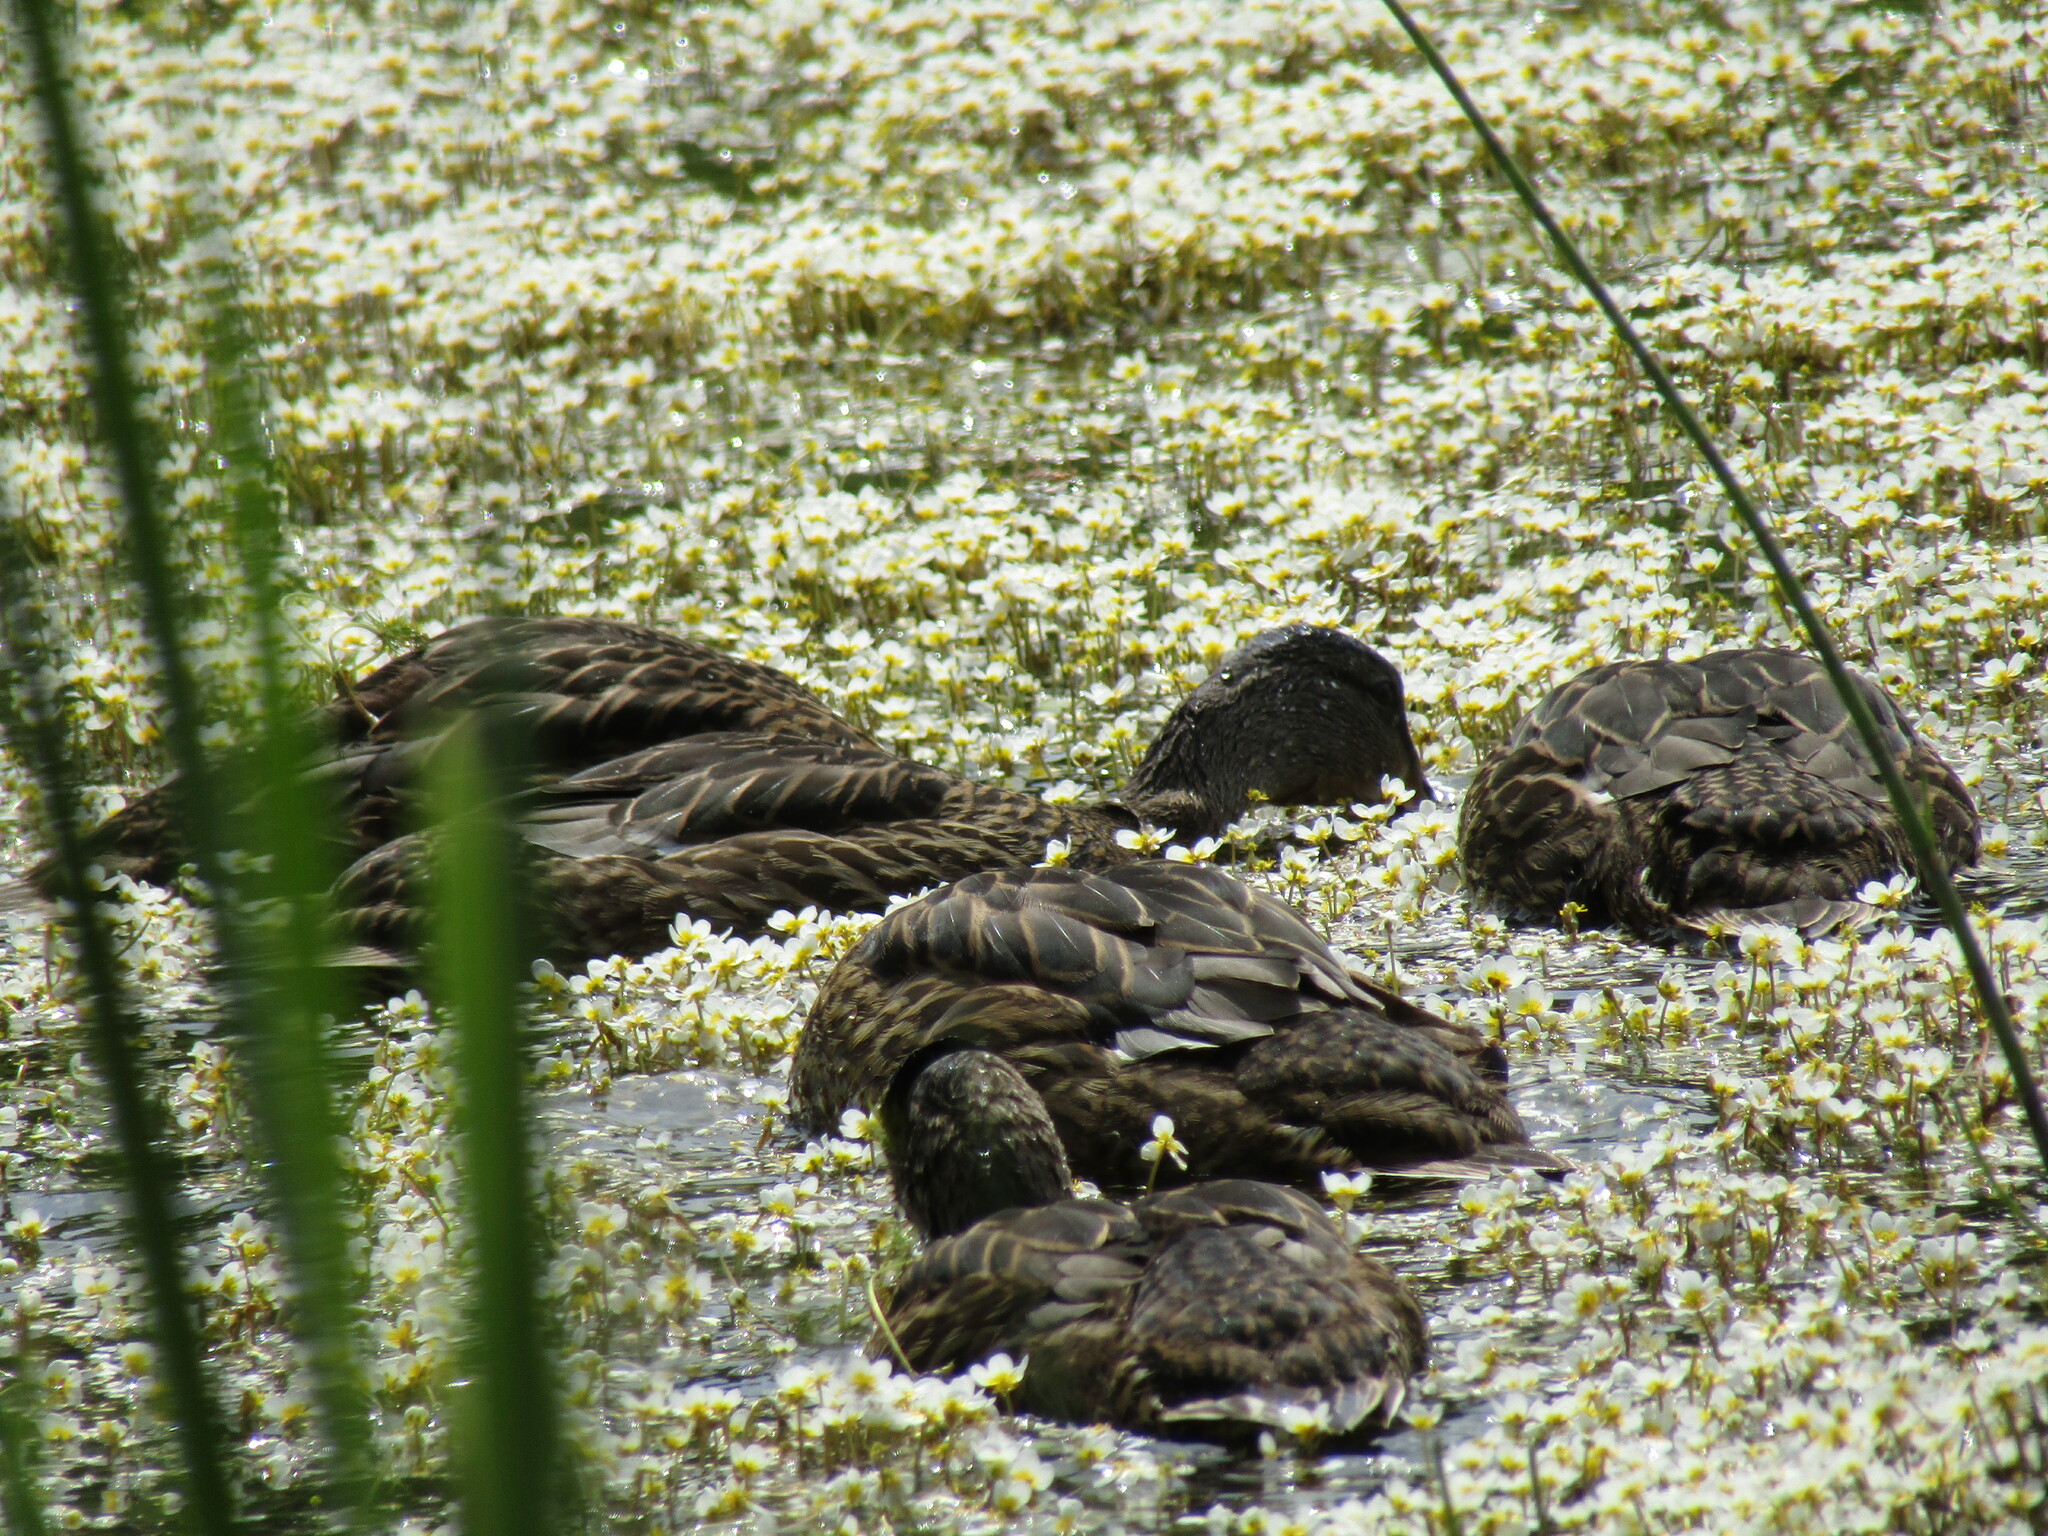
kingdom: Animalia
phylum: Chordata
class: Aves
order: Anseriformes
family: Anatidae
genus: Anas
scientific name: Anas platyrhynchos
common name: Mallard
